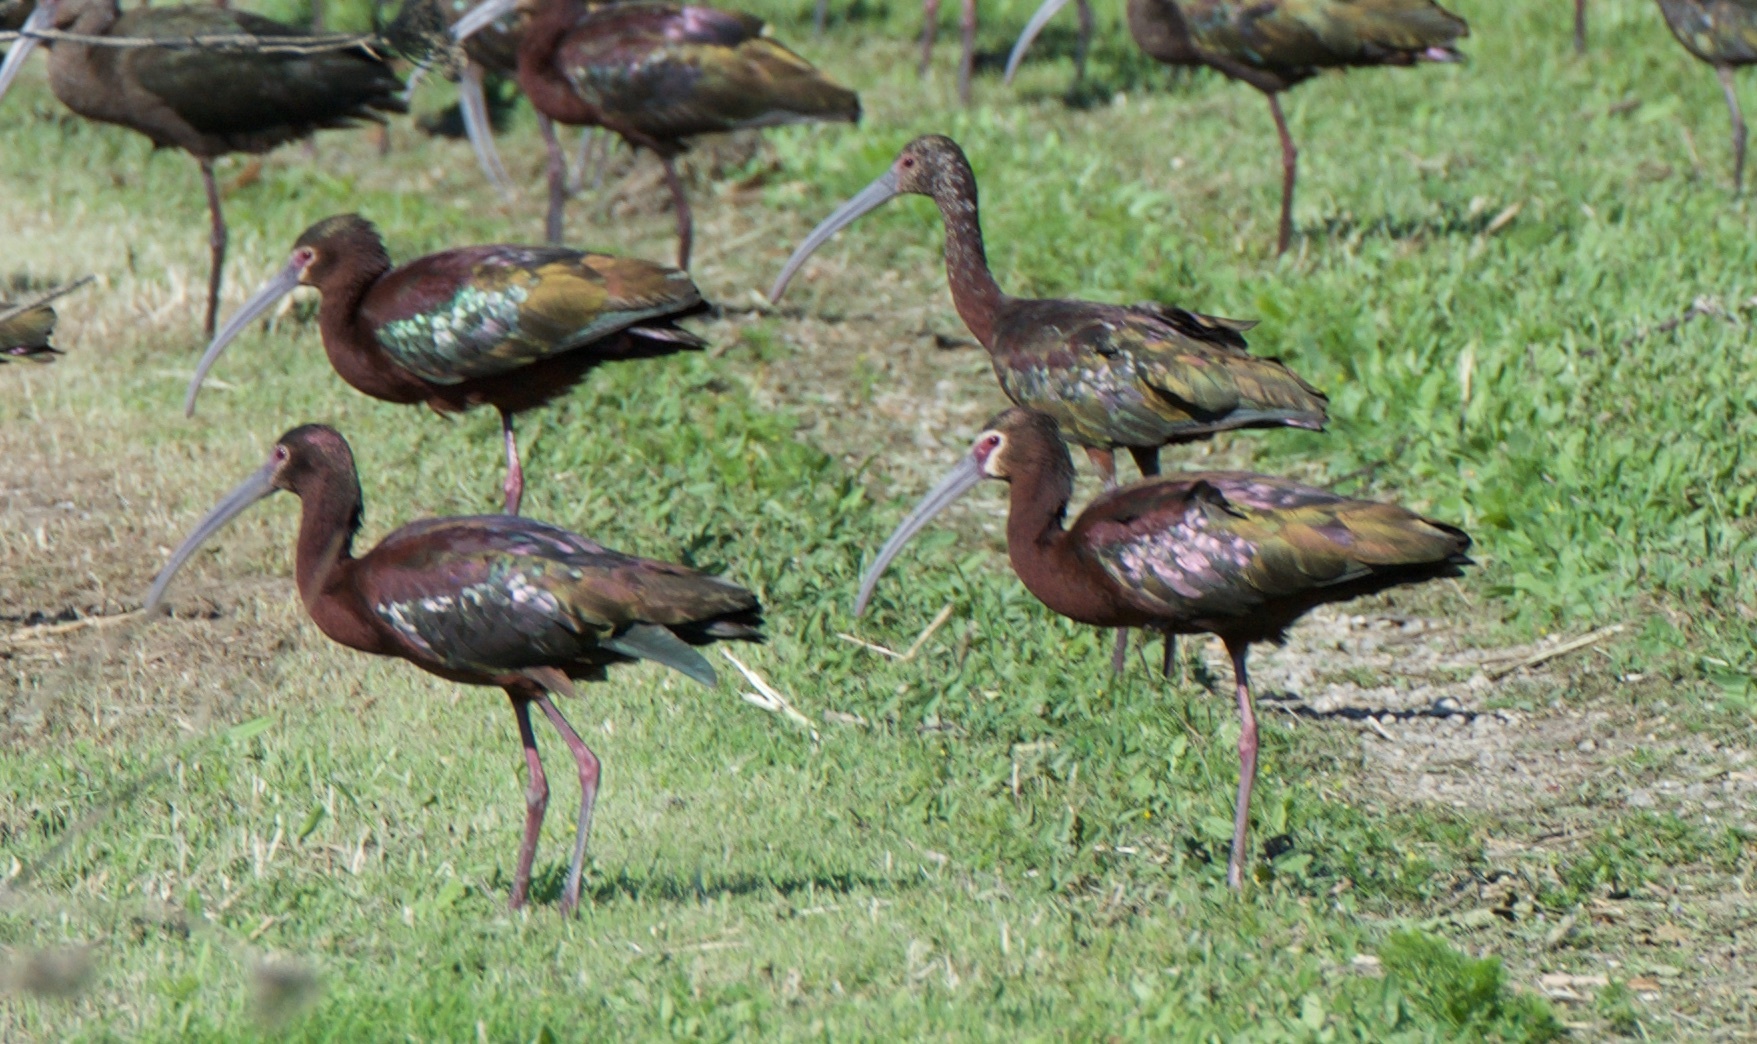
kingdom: Animalia
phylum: Chordata
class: Aves
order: Pelecaniformes
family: Threskiornithidae
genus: Plegadis
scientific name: Plegadis chihi
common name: White-faced ibis
